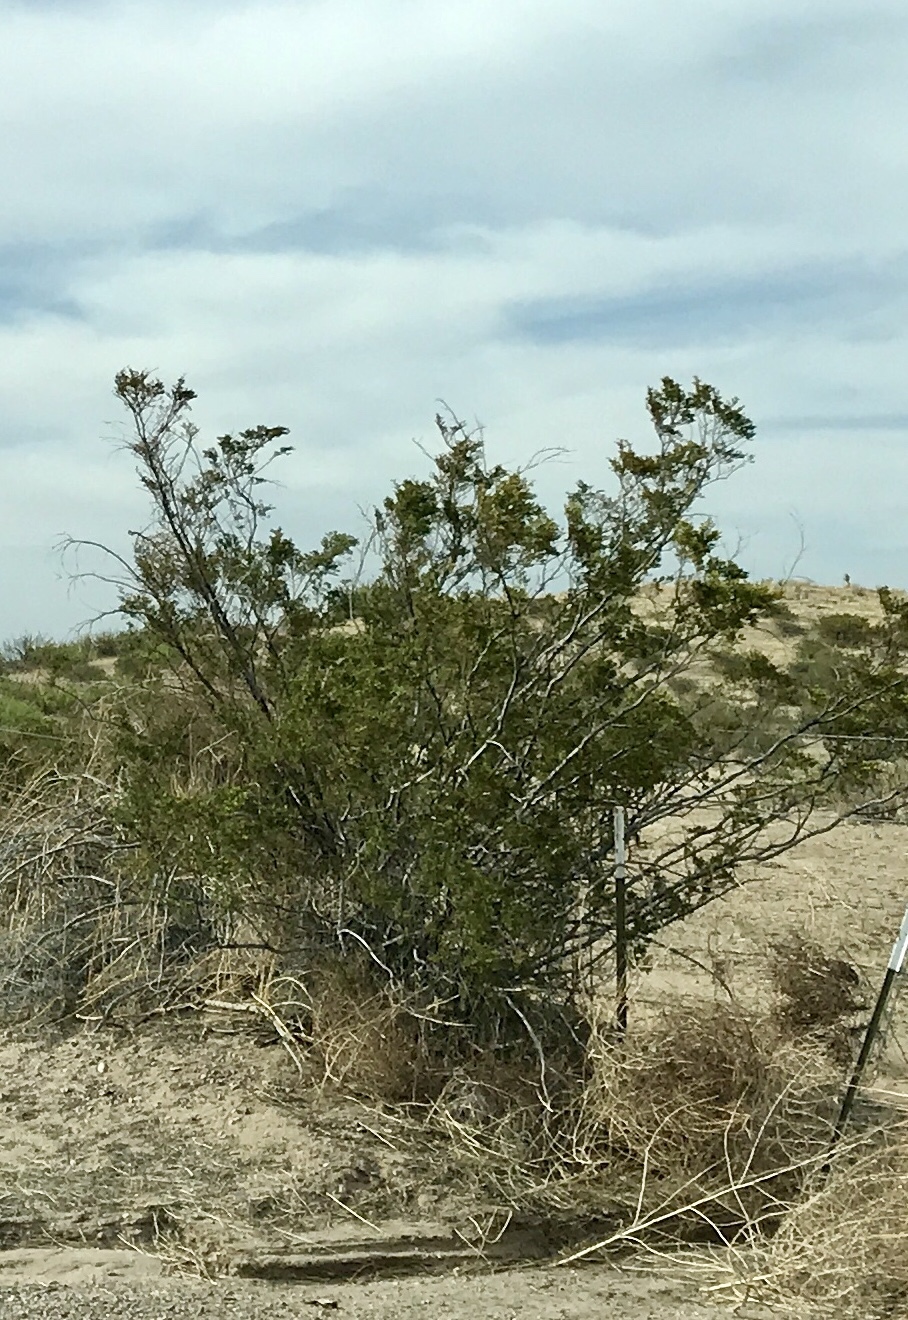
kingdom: Plantae
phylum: Tracheophyta
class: Magnoliopsida
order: Zygophyllales
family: Zygophyllaceae
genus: Larrea
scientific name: Larrea tridentata
